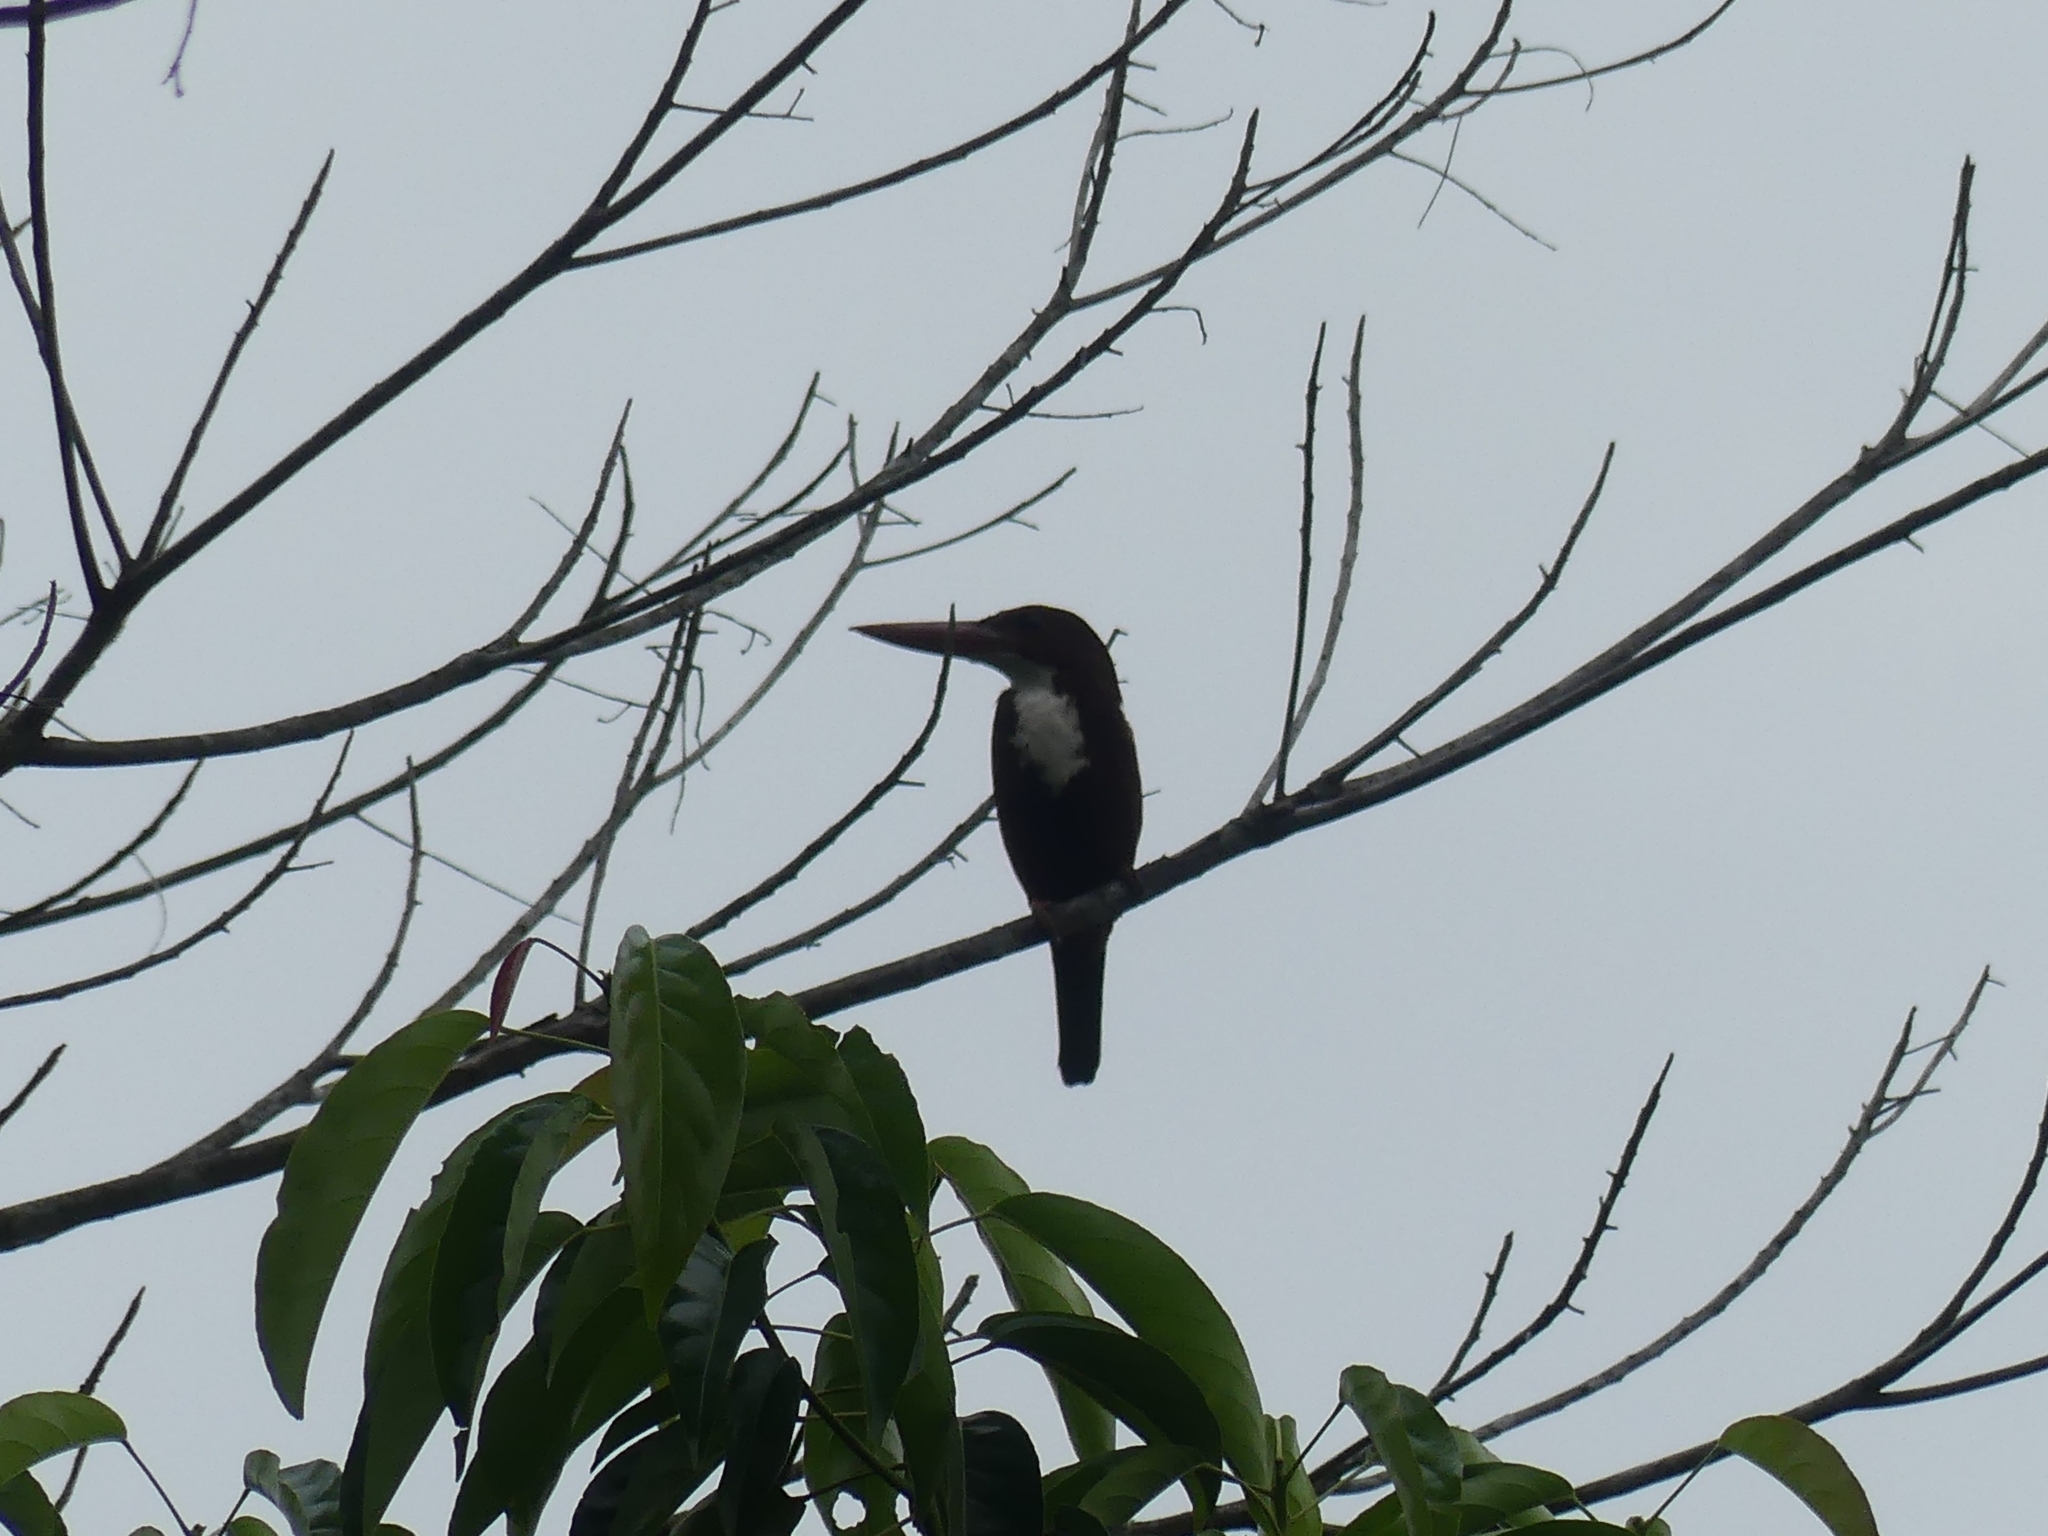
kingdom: Animalia
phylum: Chordata
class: Aves
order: Coraciiformes
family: Alcedinidae
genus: Halcyon
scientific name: Halcyon smyrnensis
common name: White-throated kingfisher
